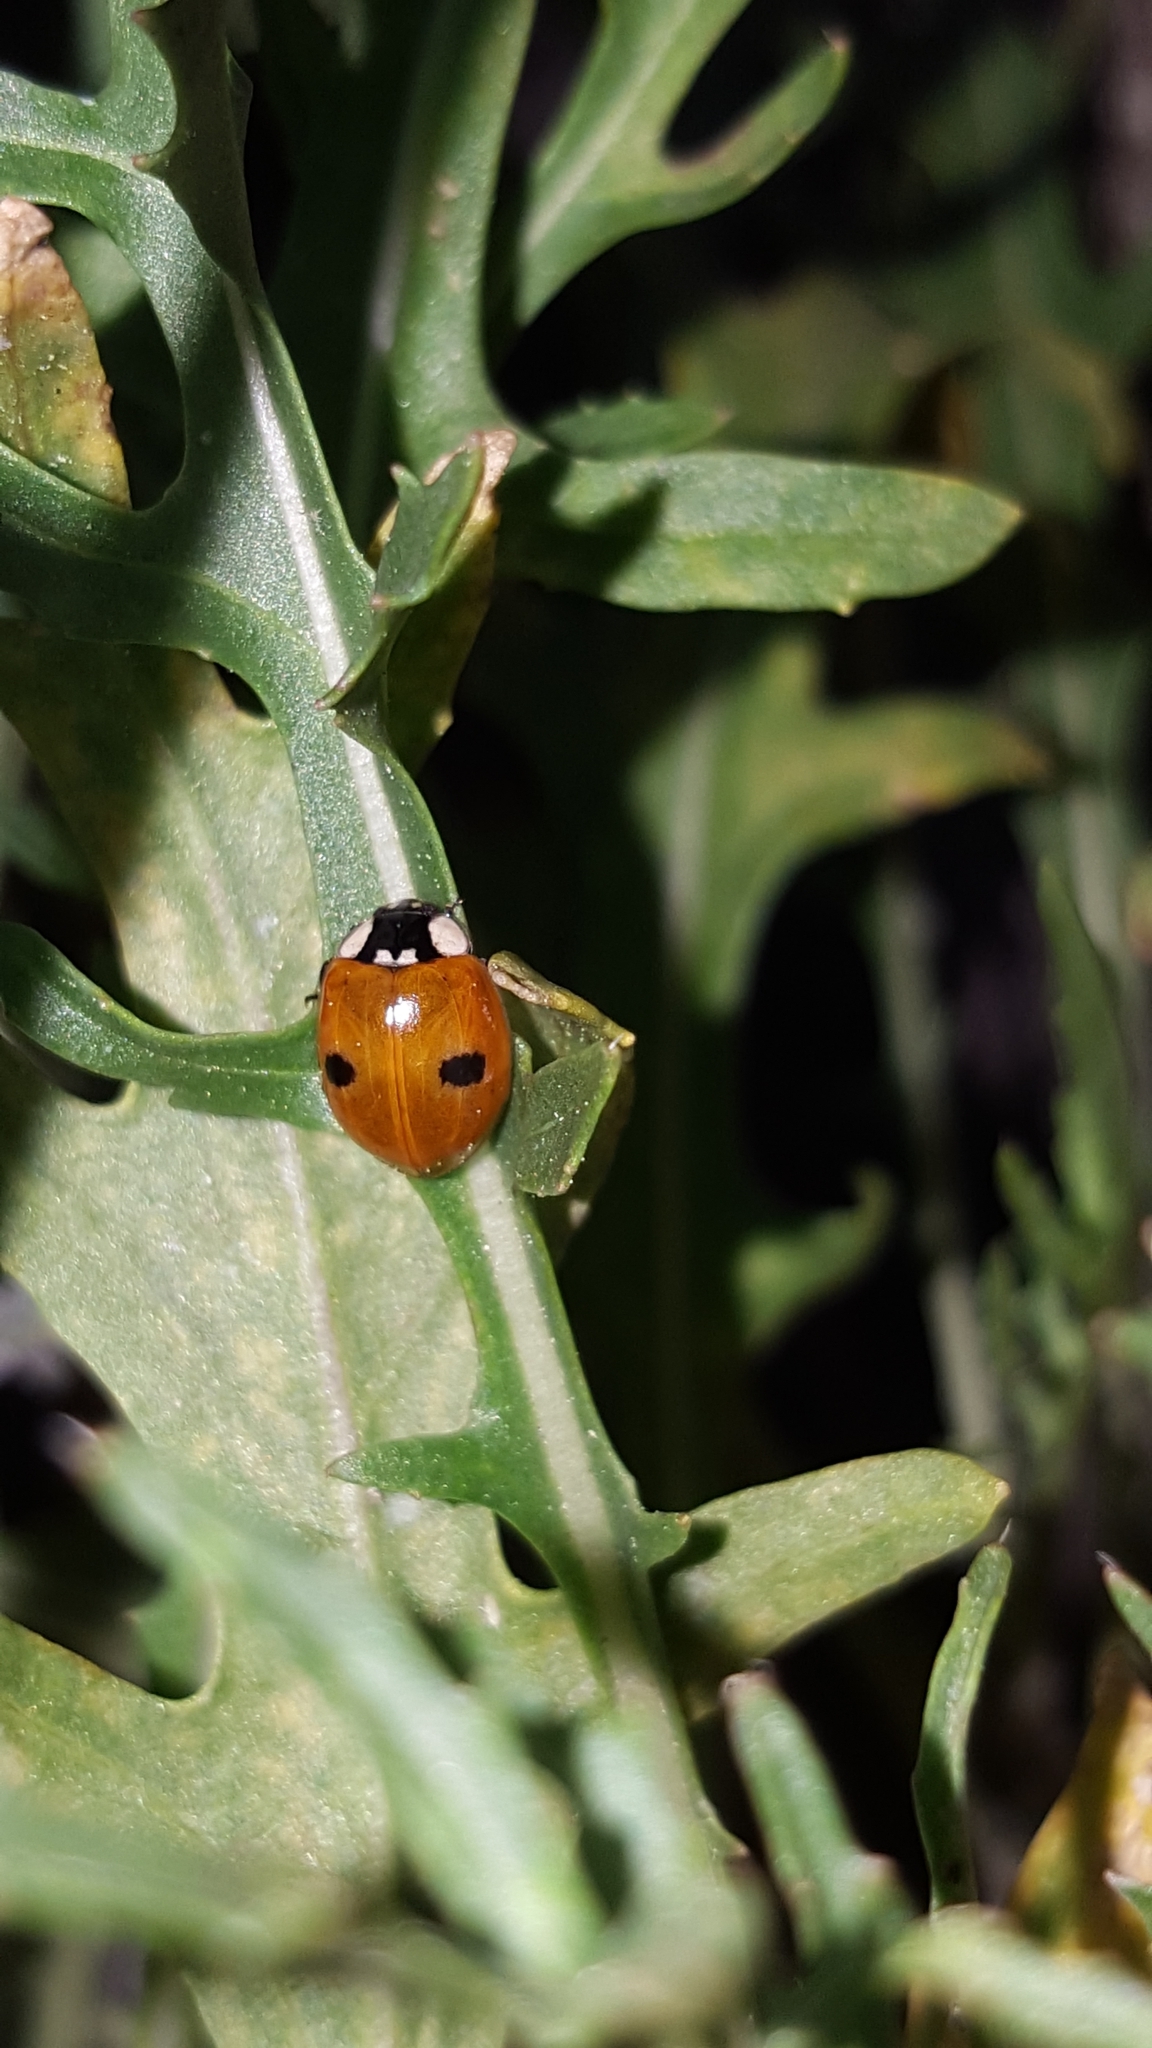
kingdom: Animalia
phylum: Arthropoda
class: Insecta
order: Coleoptera
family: Coccinellidae
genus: Adalia
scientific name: Adalia bipunctata
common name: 2-spot ladybird
